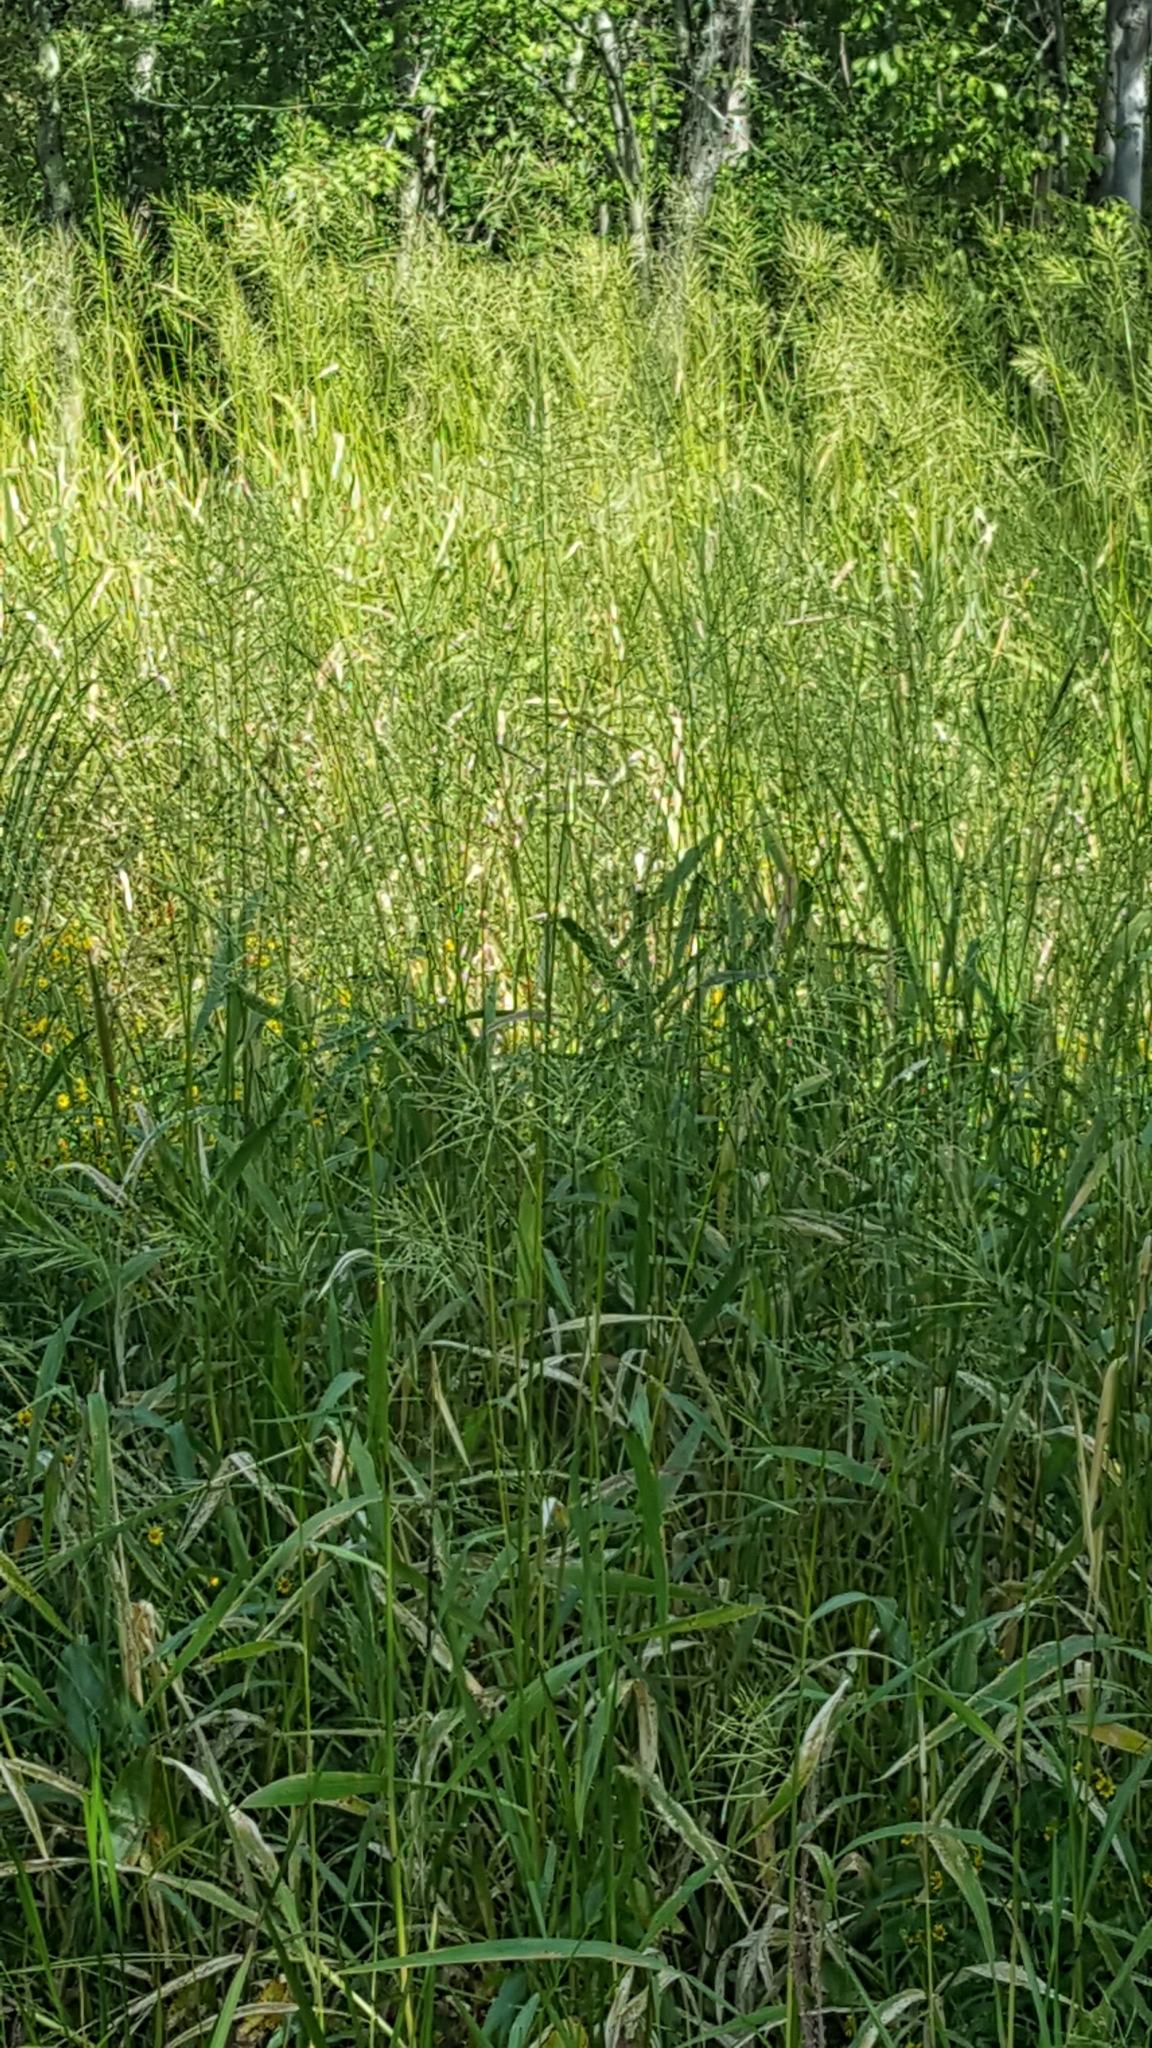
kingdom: Plantae
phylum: Tracheophyta
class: Liliopsida
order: Poales
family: Poaceae
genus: Zizania
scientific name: Zizania aquatica
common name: Annual wildrice
